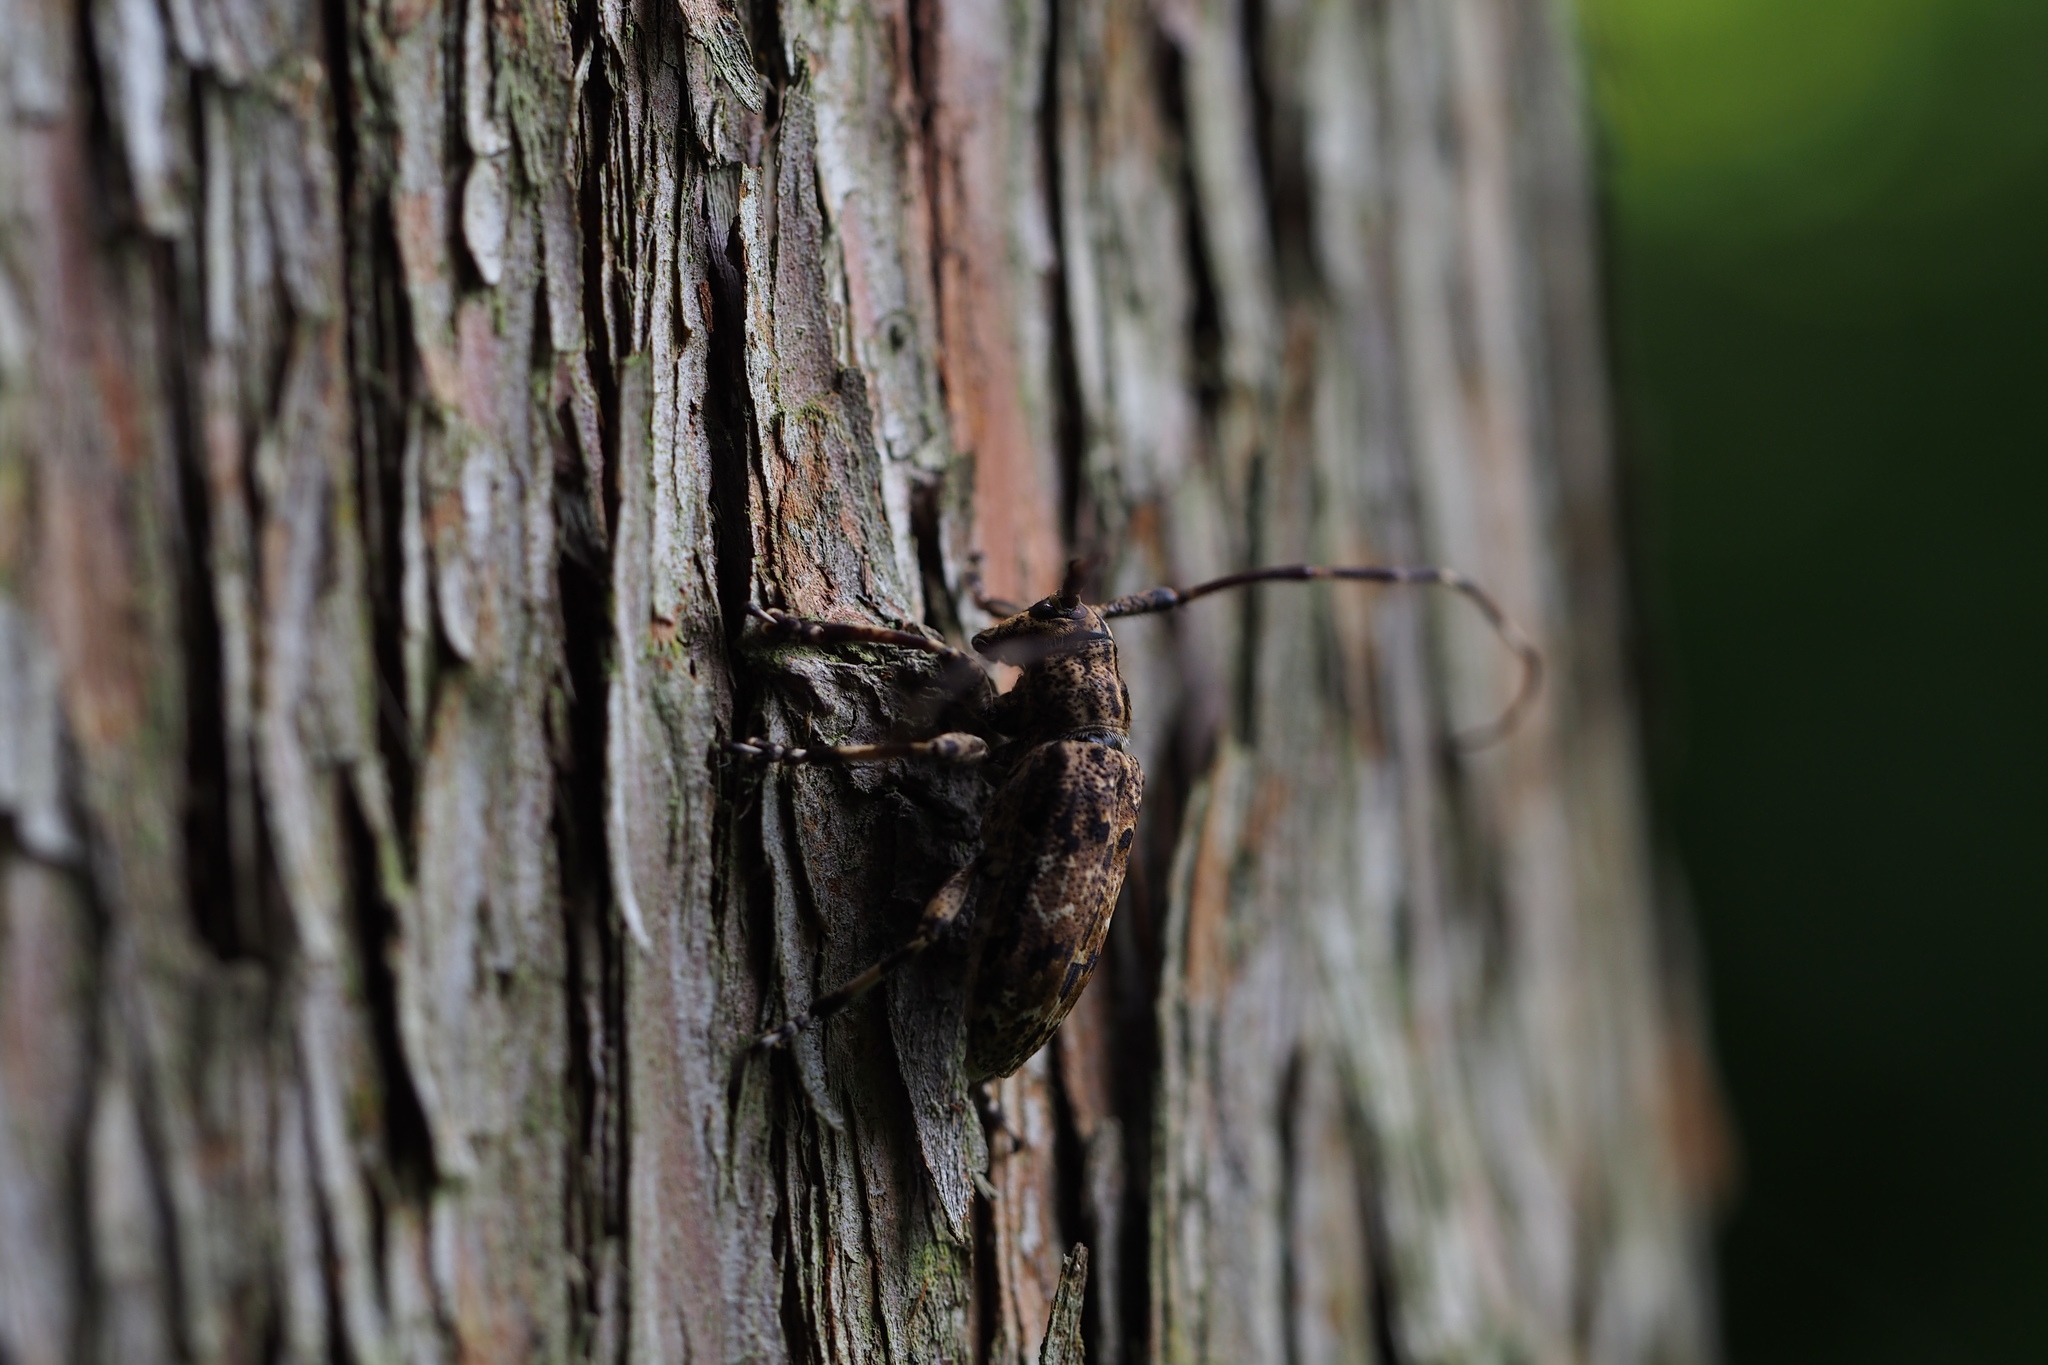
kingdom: Animalia
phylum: Arthropoda
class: Insecta
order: Coleoptera
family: Cerambycidae
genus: Mesosa
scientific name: Mesosa longipennis
